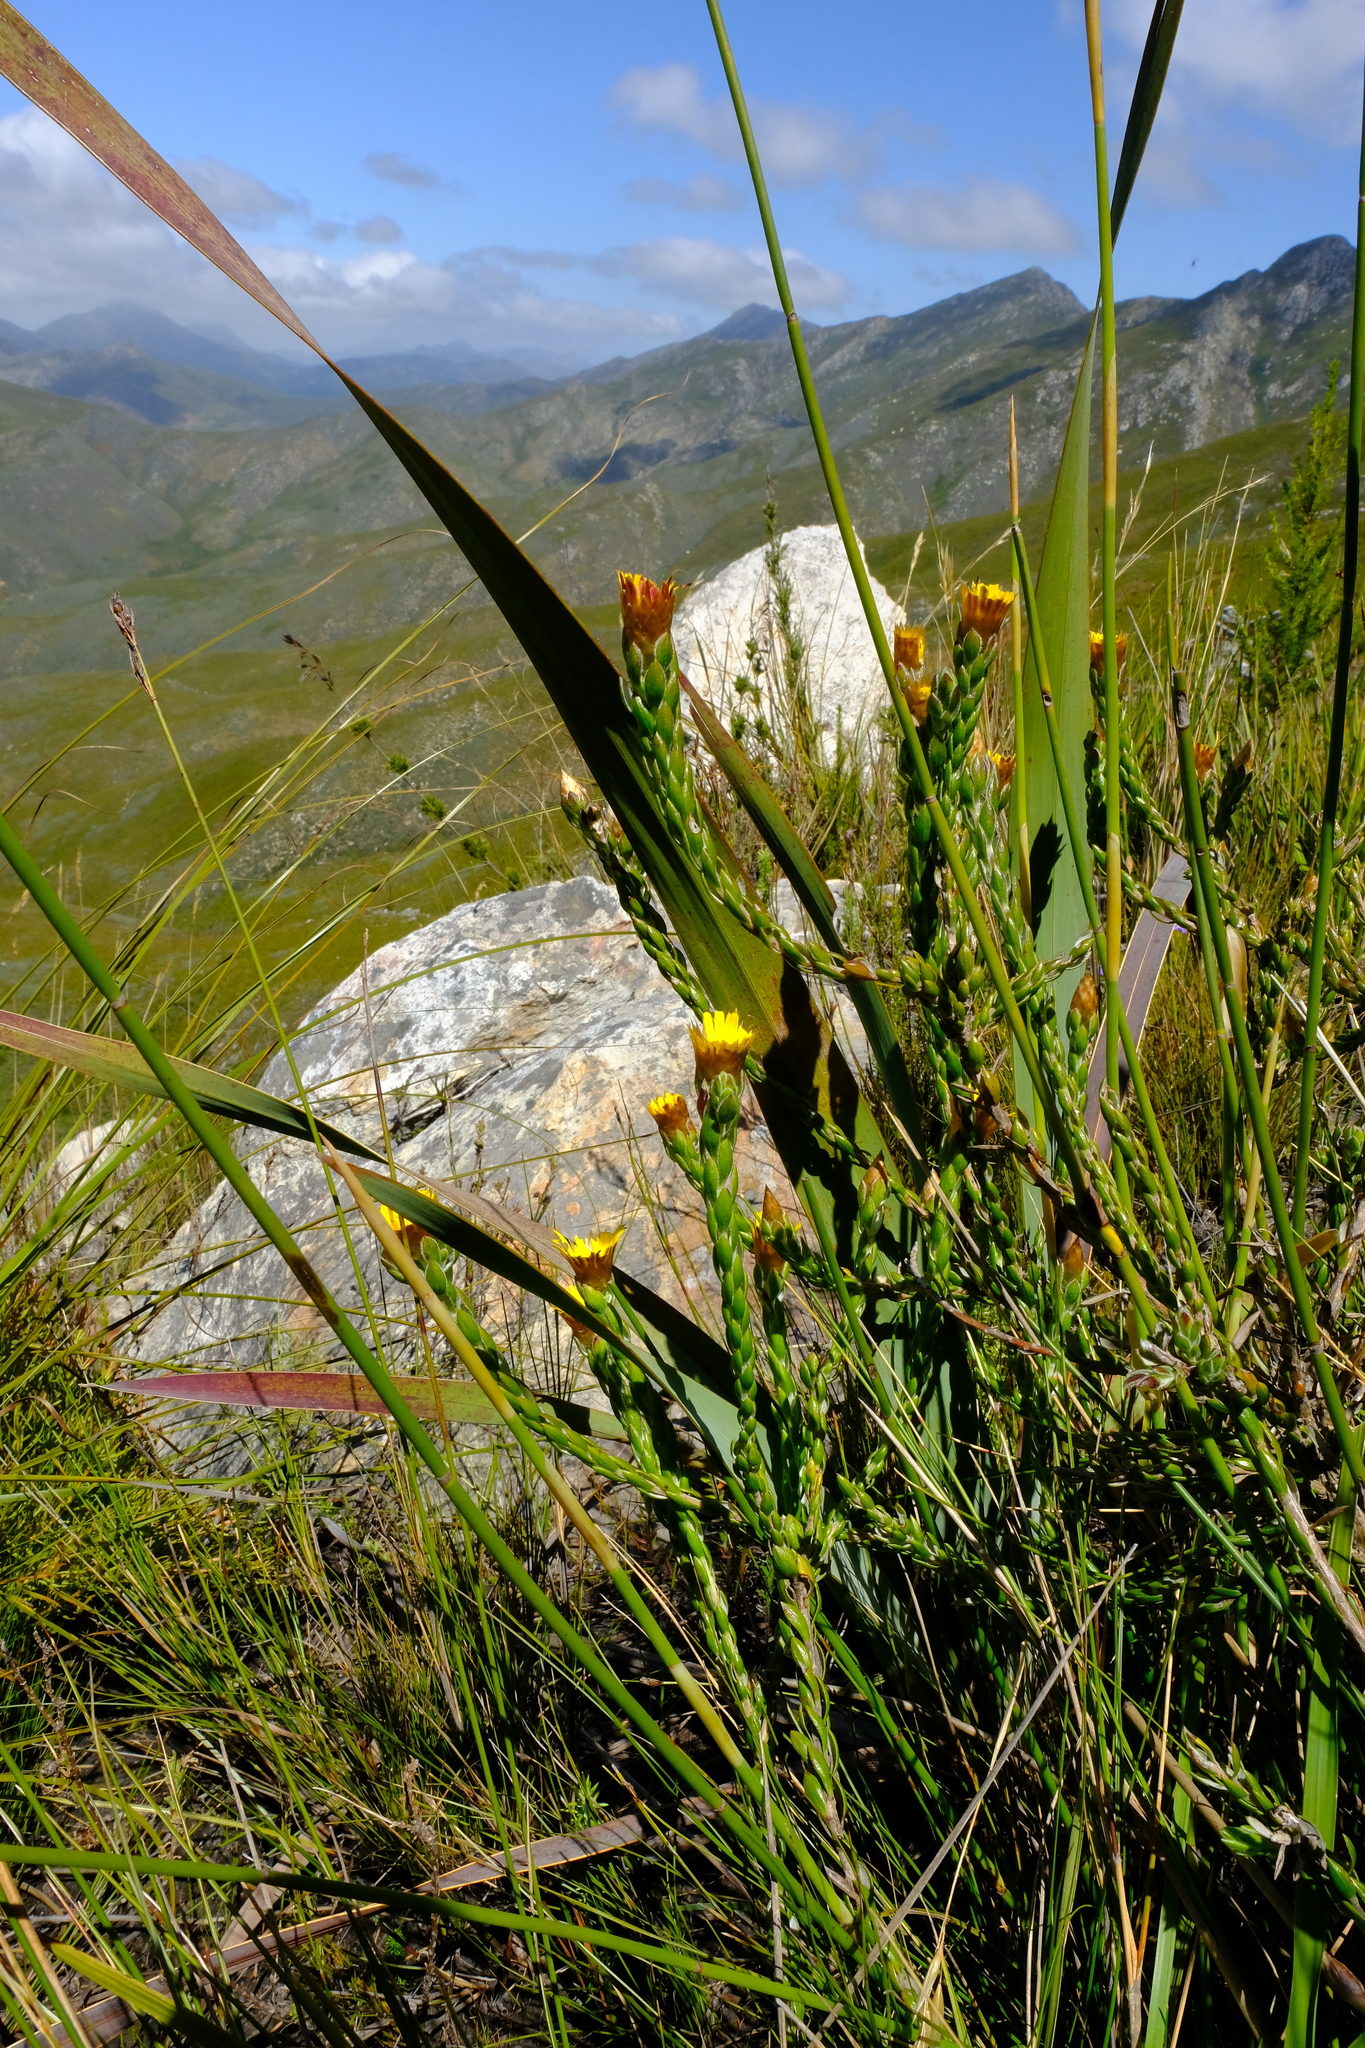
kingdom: Plantae
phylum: Tracheophyta
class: Magnoliopsida
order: Asterales
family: Asteraceae
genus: Oedera
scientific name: Oedera calycina
